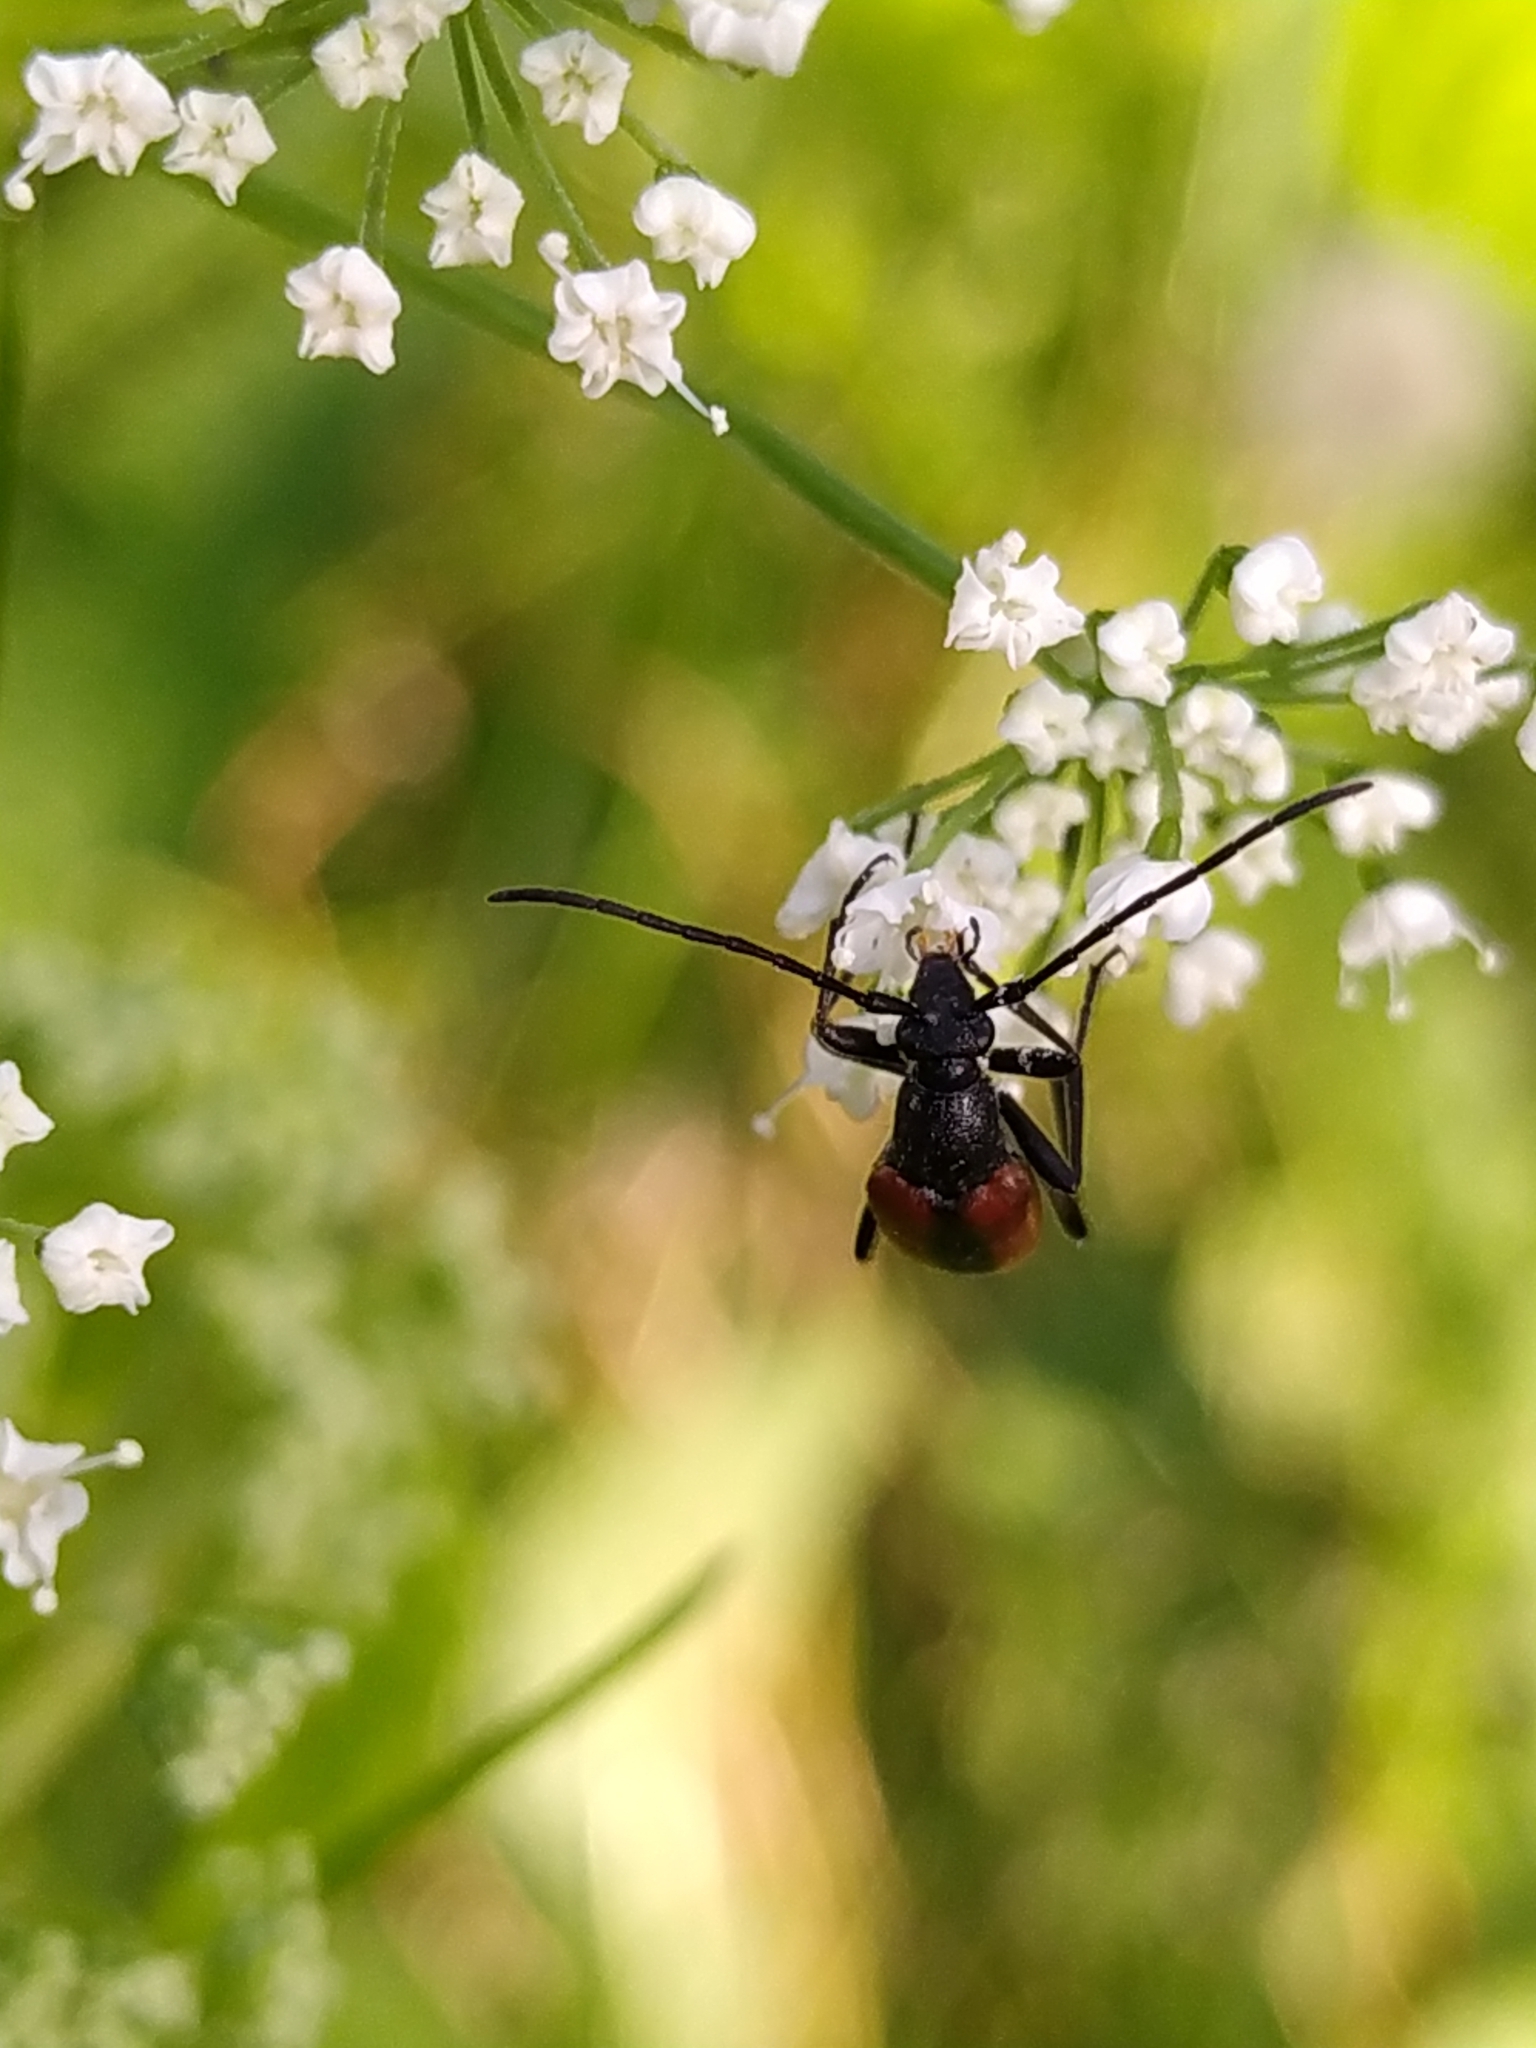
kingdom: Animalia
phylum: Arthropoda
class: Insecta
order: Coleoptera
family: Cerambycidae
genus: Stenurella
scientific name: Stenurella melanura
